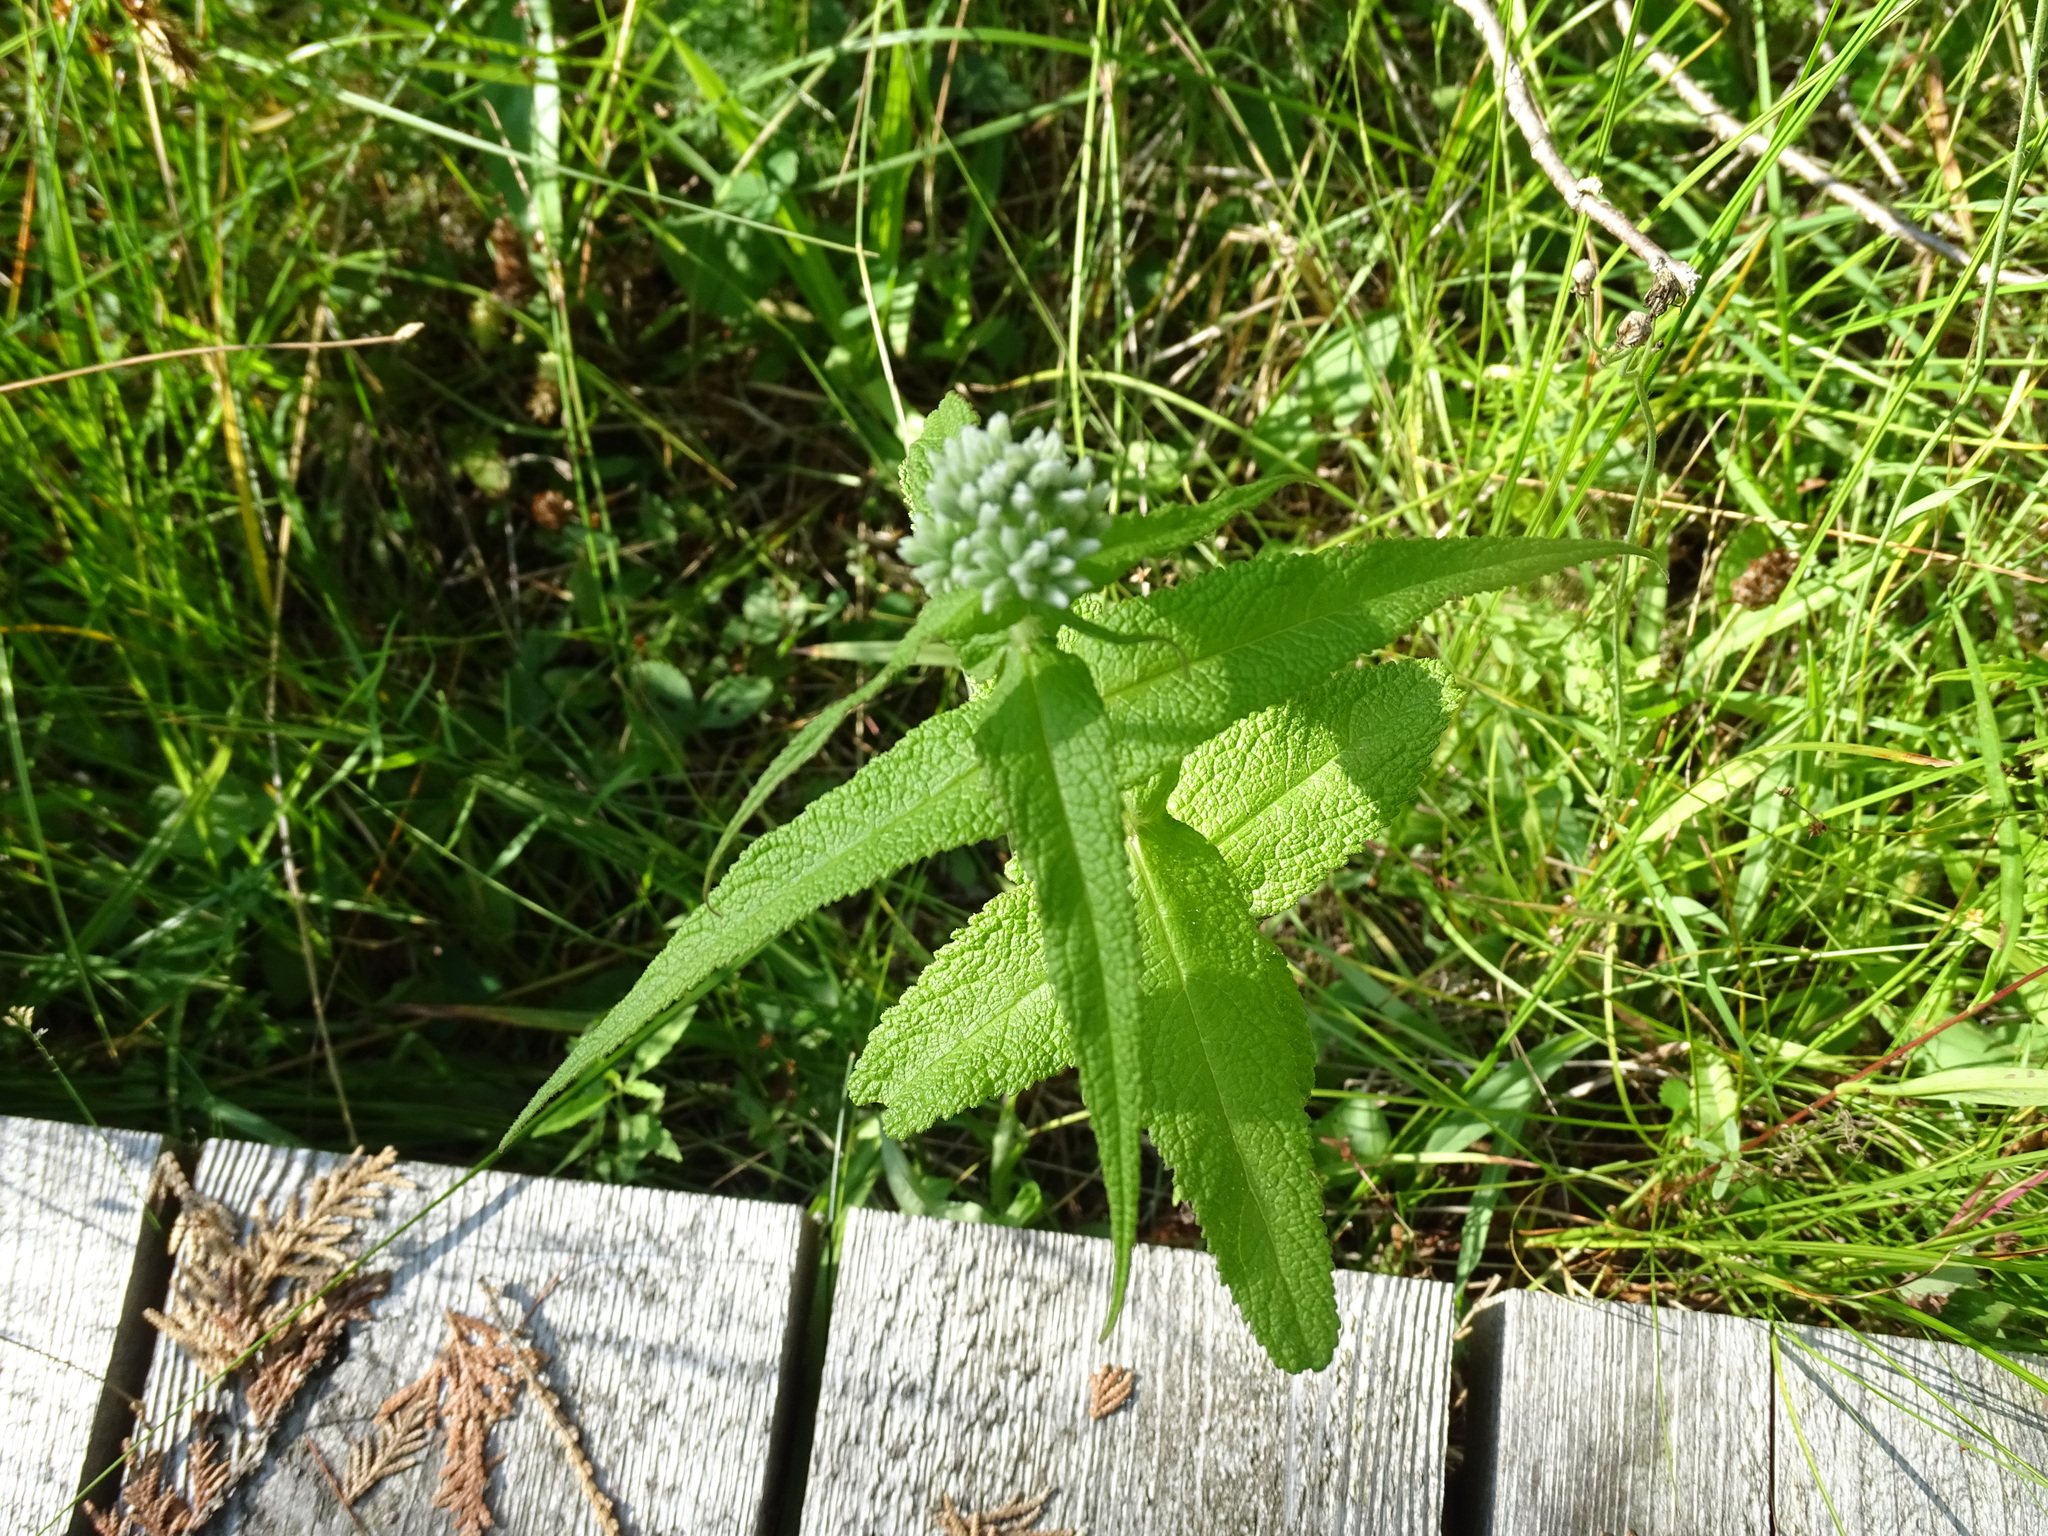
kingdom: Plantae
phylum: Tracheophyta
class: Magnoliopsida
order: Asterales
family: Asteraceae
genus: Eupatorium
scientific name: Eupatorium perfoliatum
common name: Boneset
